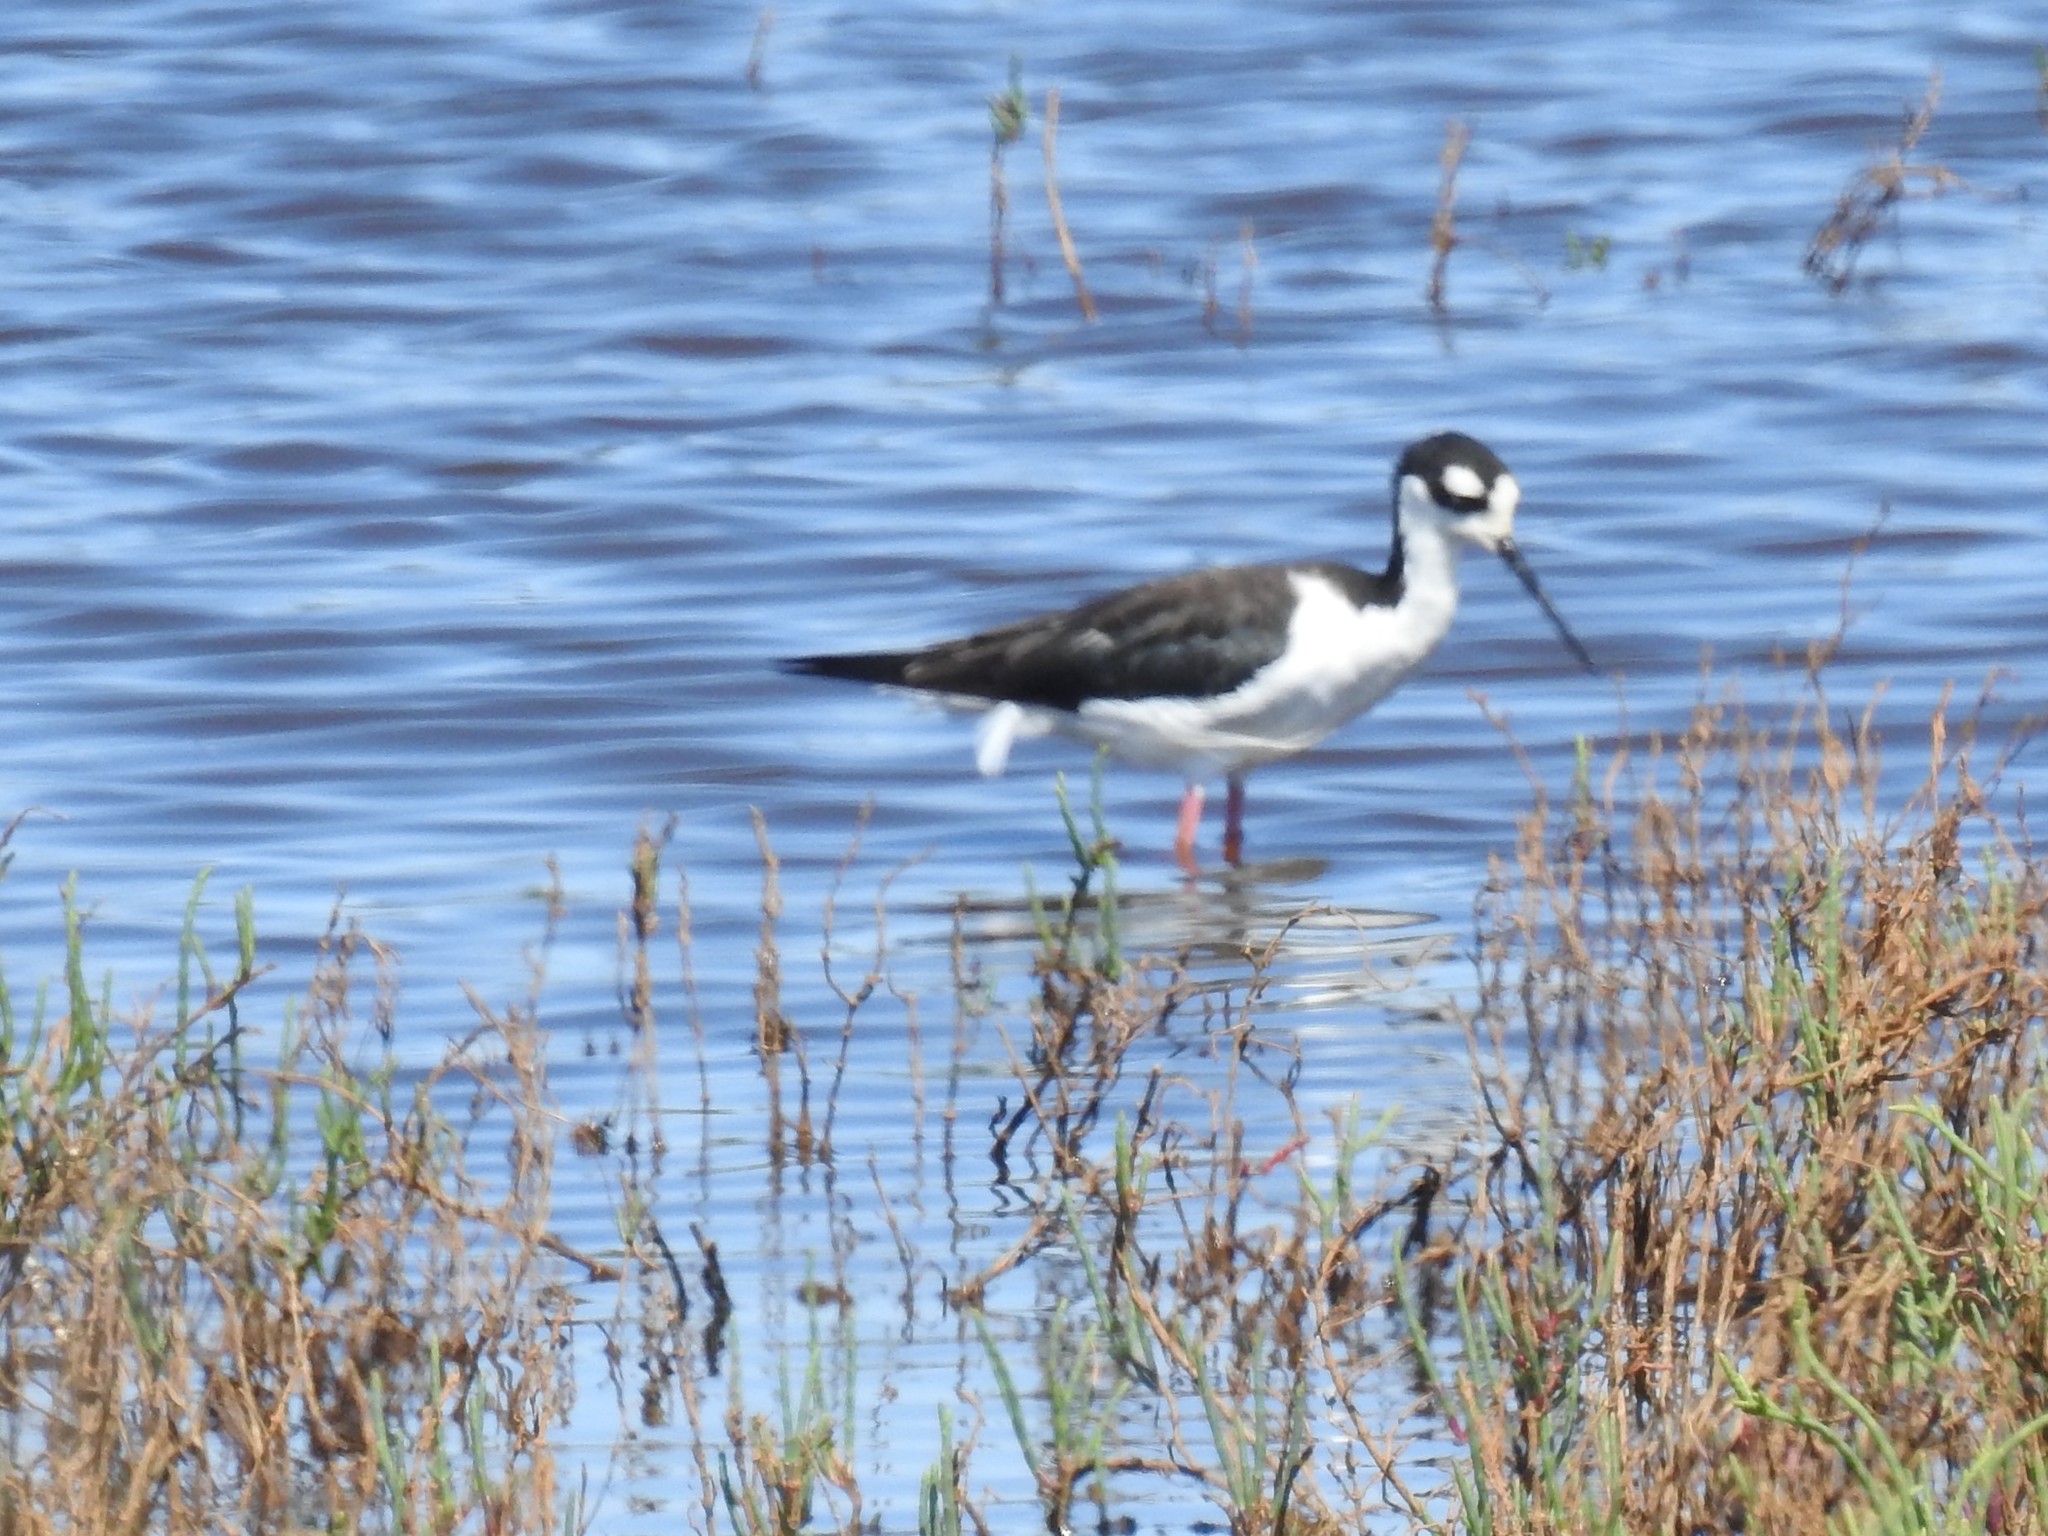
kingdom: Animalia
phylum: Chordata
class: Aves
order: Charadriiformes
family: Recurvirostridae
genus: Himantopus
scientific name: Himantopus mexicanus
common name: Black-necked stilt
